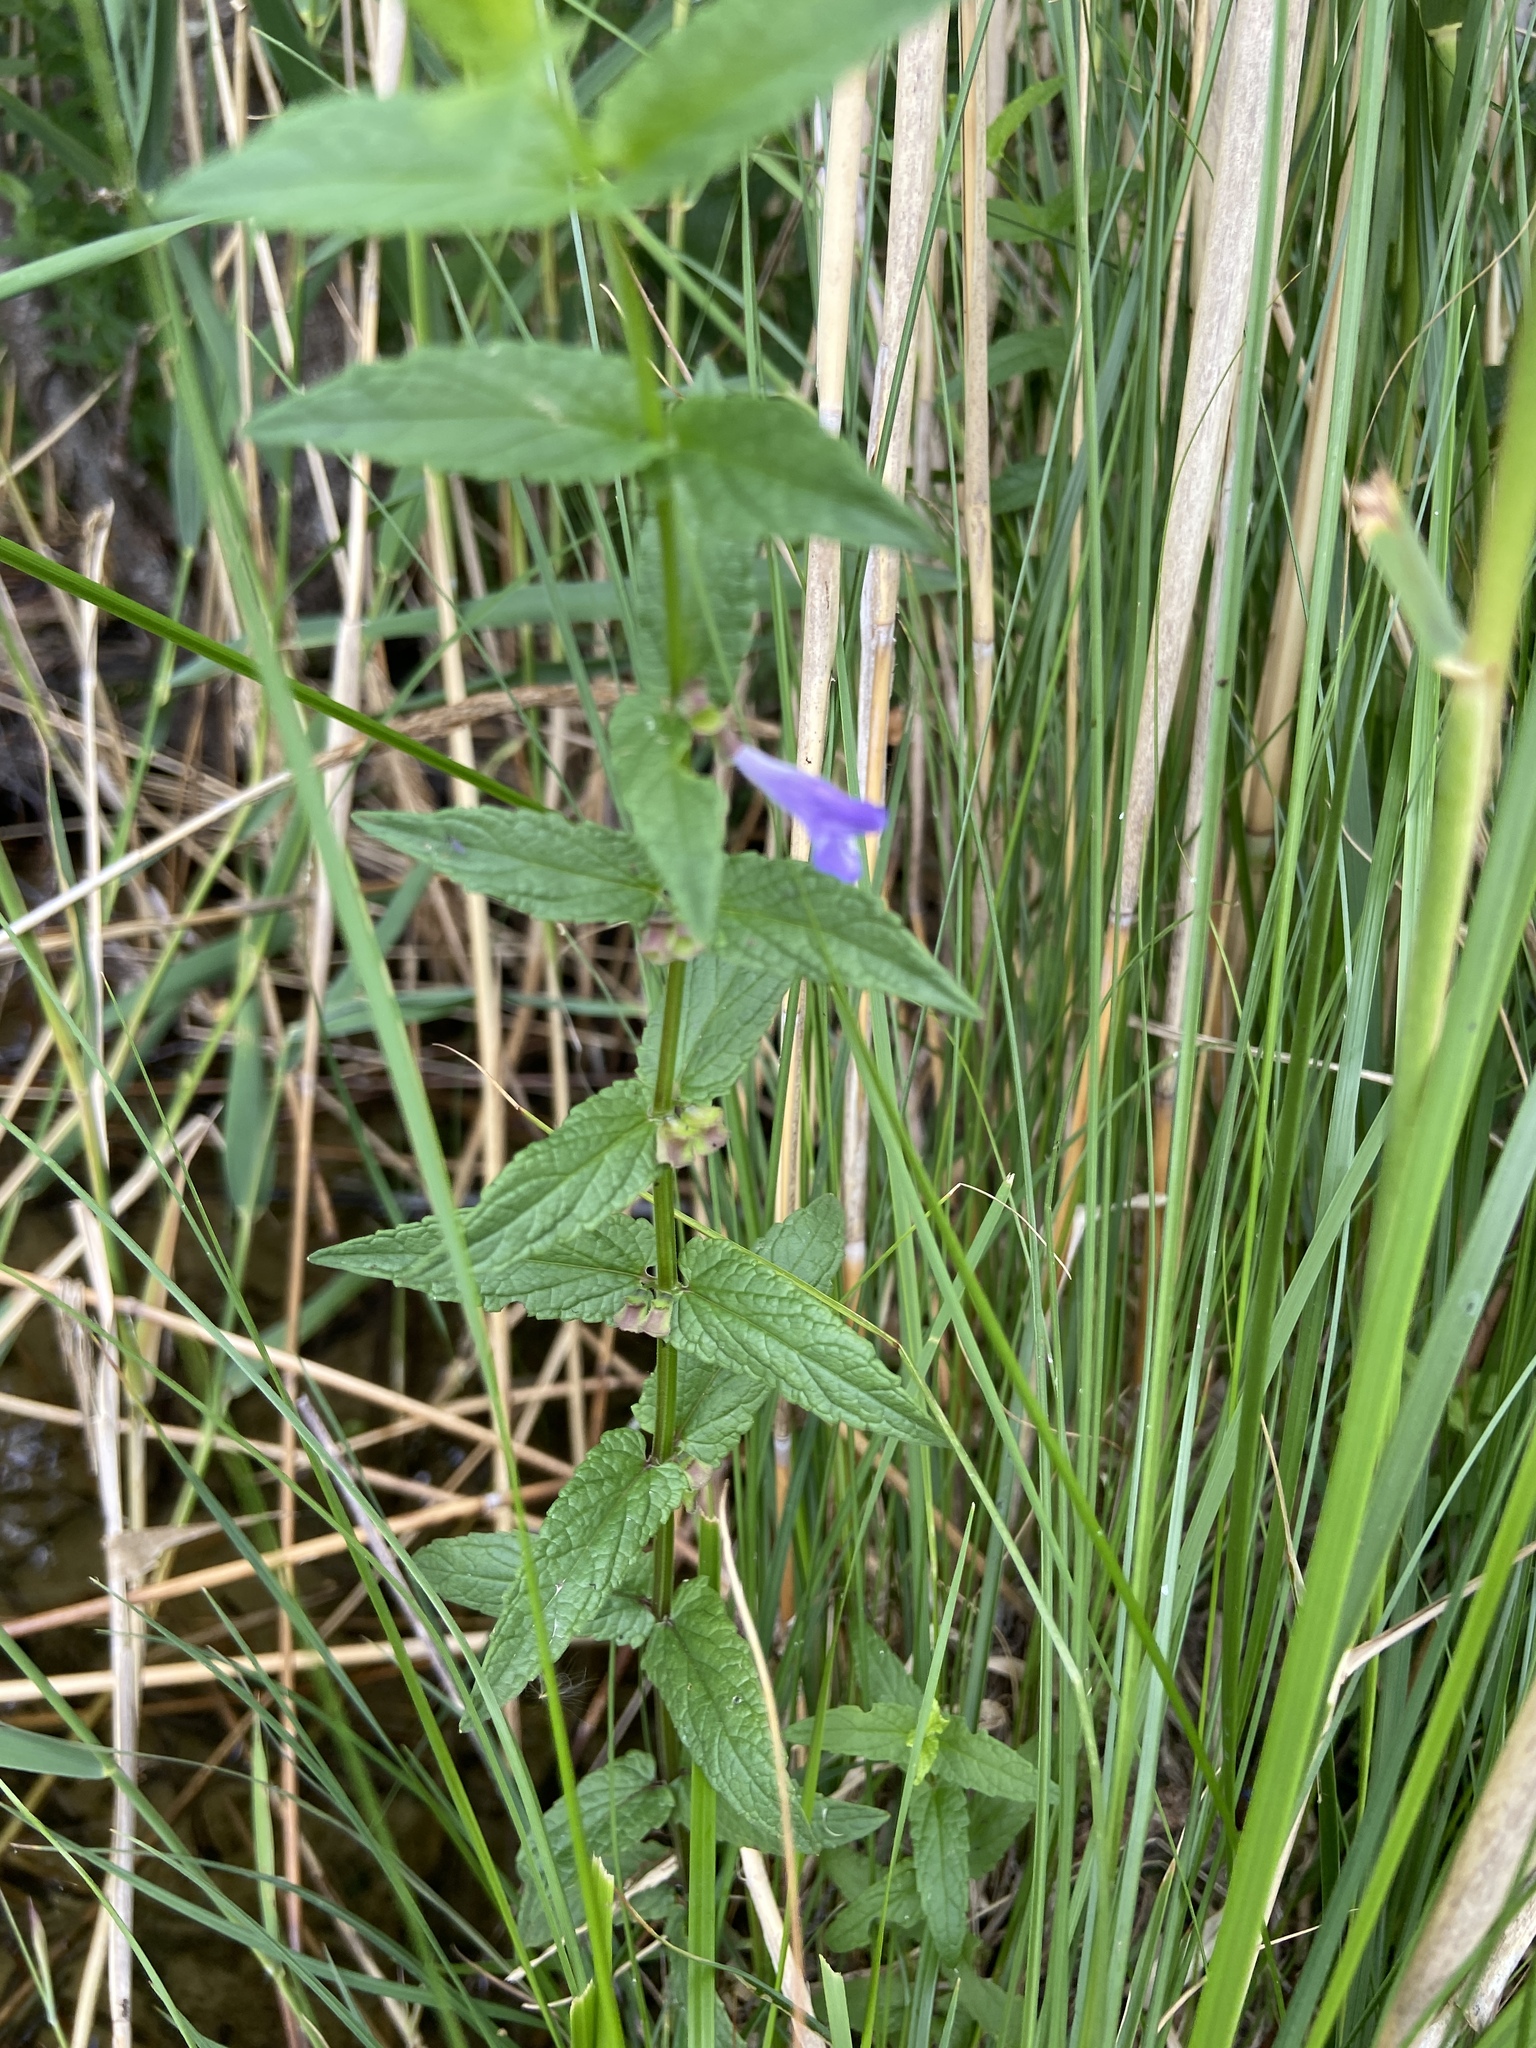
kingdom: Plantae
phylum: Tracheophyta
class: Magnoliopsida
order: Lamiales
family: Lamiaceae
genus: Scutellaria
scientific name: Scutellaria galericulata
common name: Skullcap
